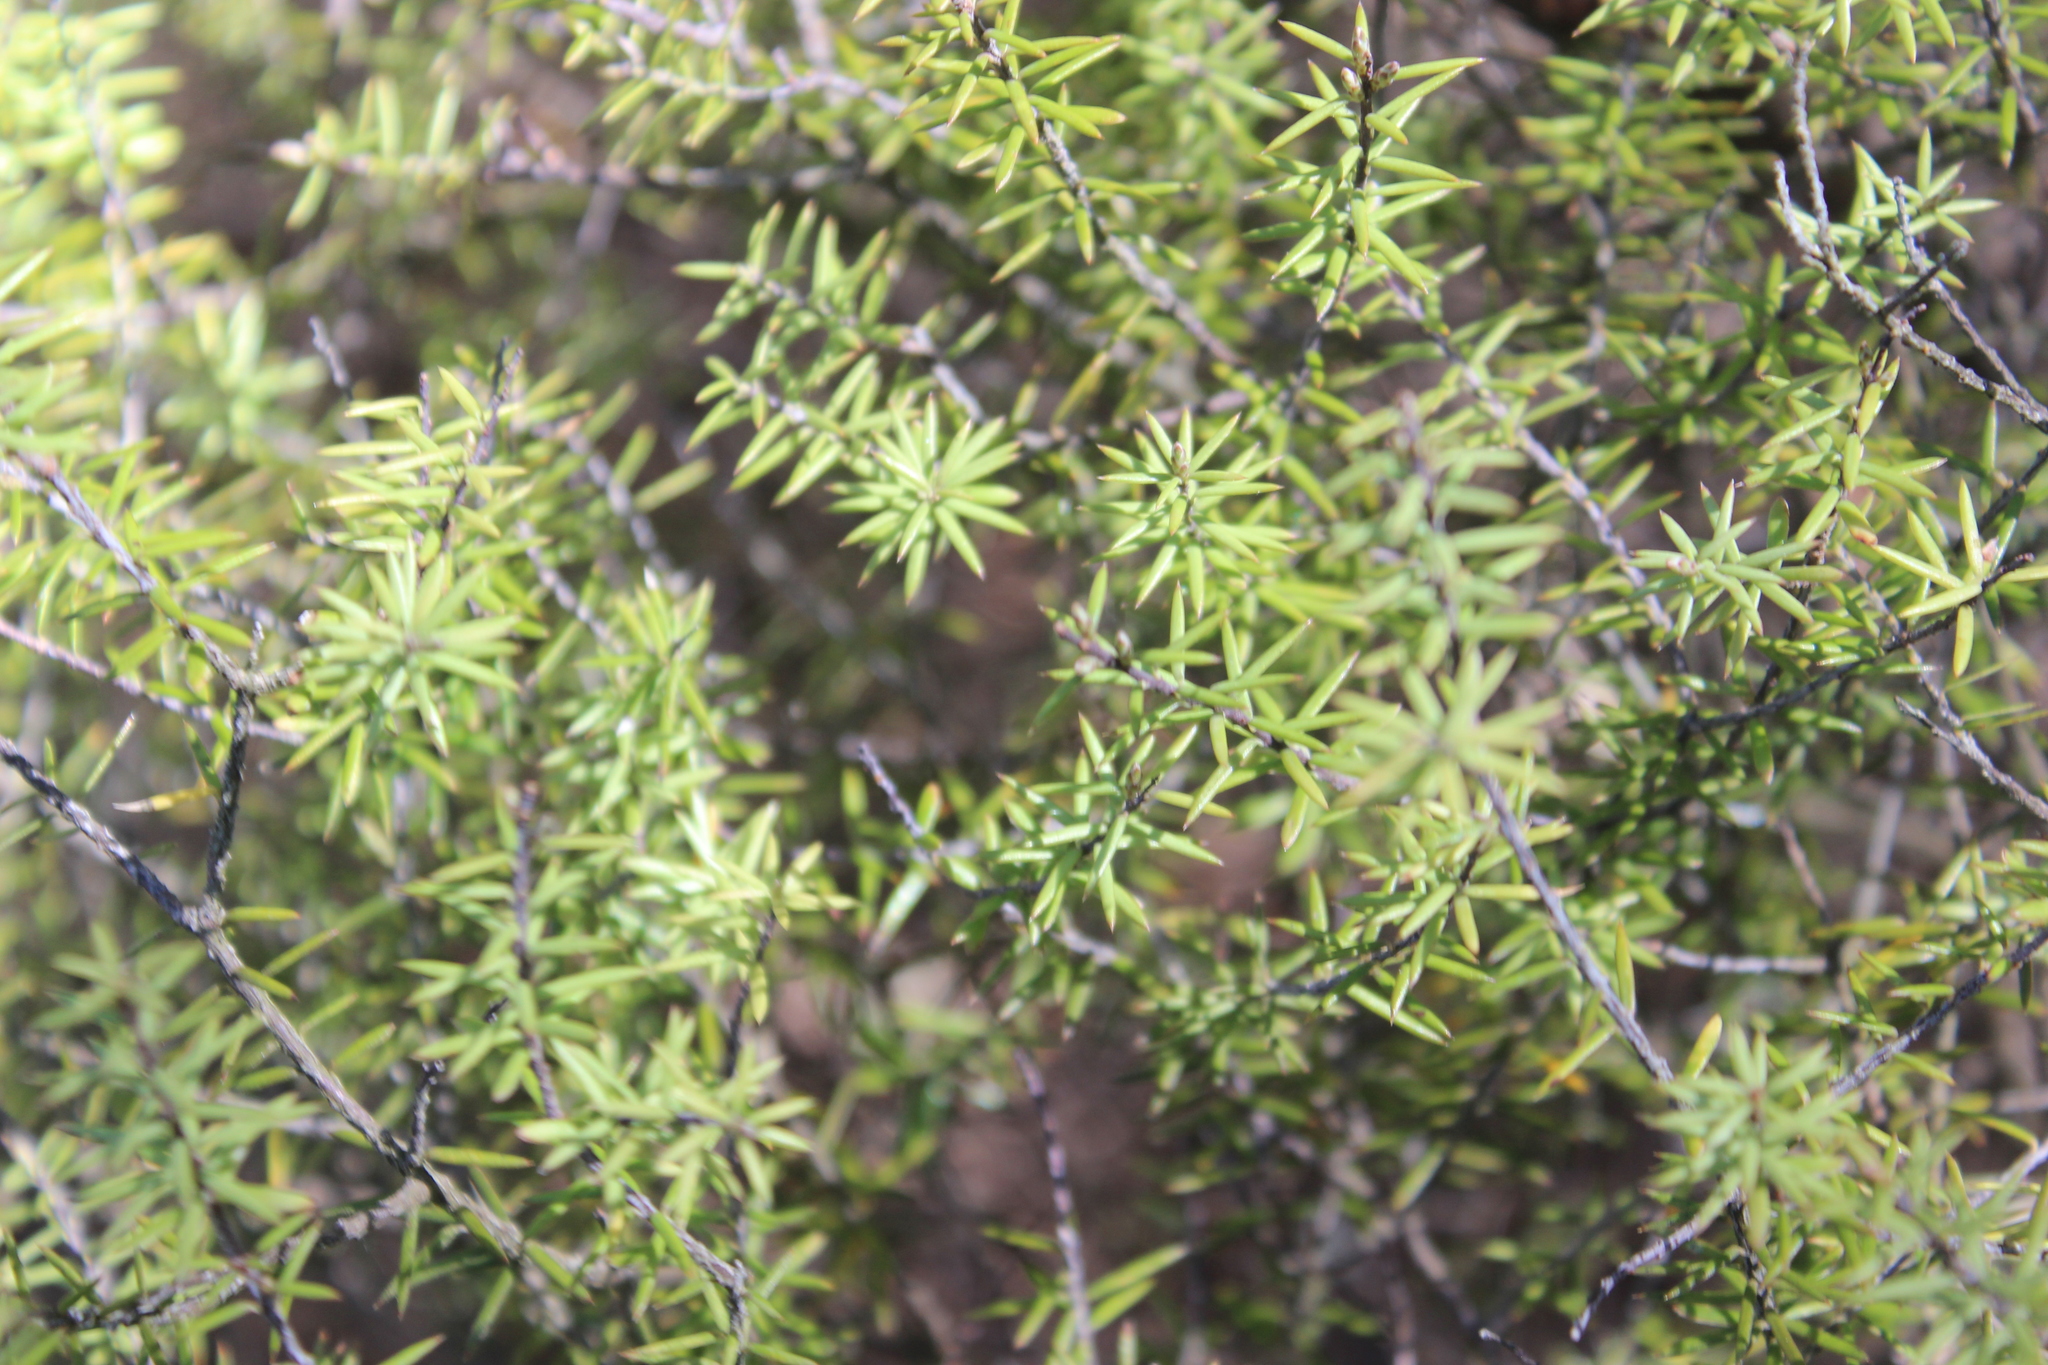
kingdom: Plantae
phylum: Tracheophyta
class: Magnoliopsida
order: Ericales
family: Ericaceae
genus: Leptecophylla
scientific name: Leptecophylla juniperina
